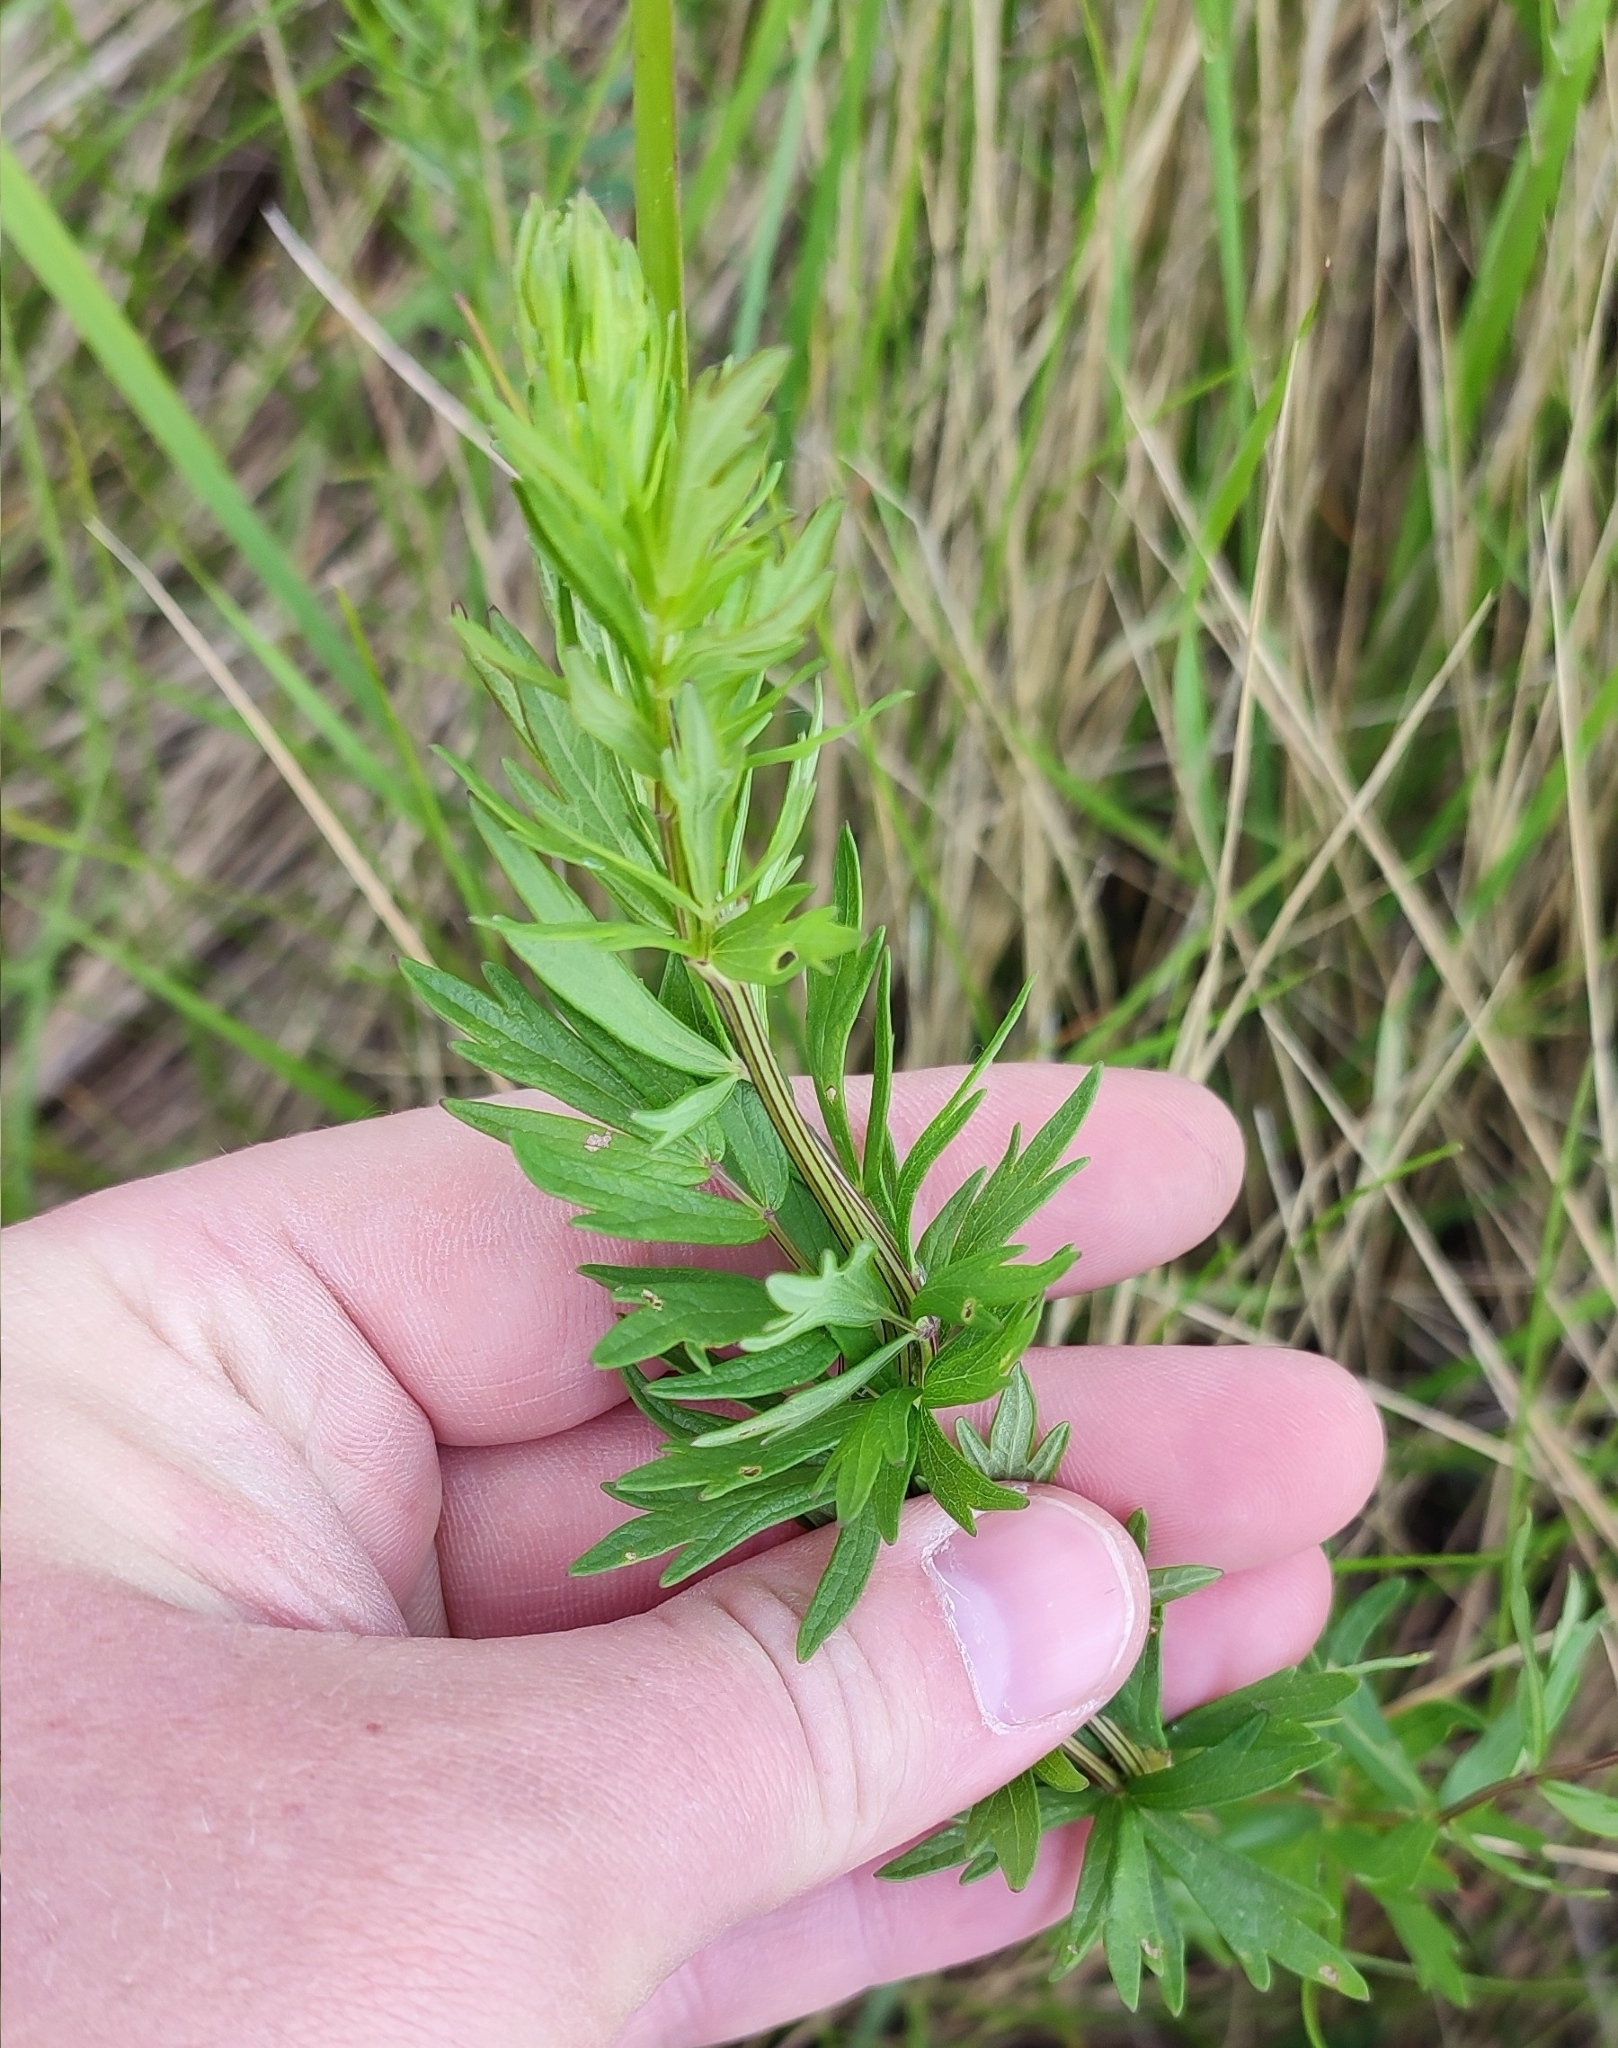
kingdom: Plantae
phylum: Tracheophyta
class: Magnoliopsida
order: Ranunculales
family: Ranunculaceae
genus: Thalictrum
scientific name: Thalictrum simplex
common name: Small meadow-rue
